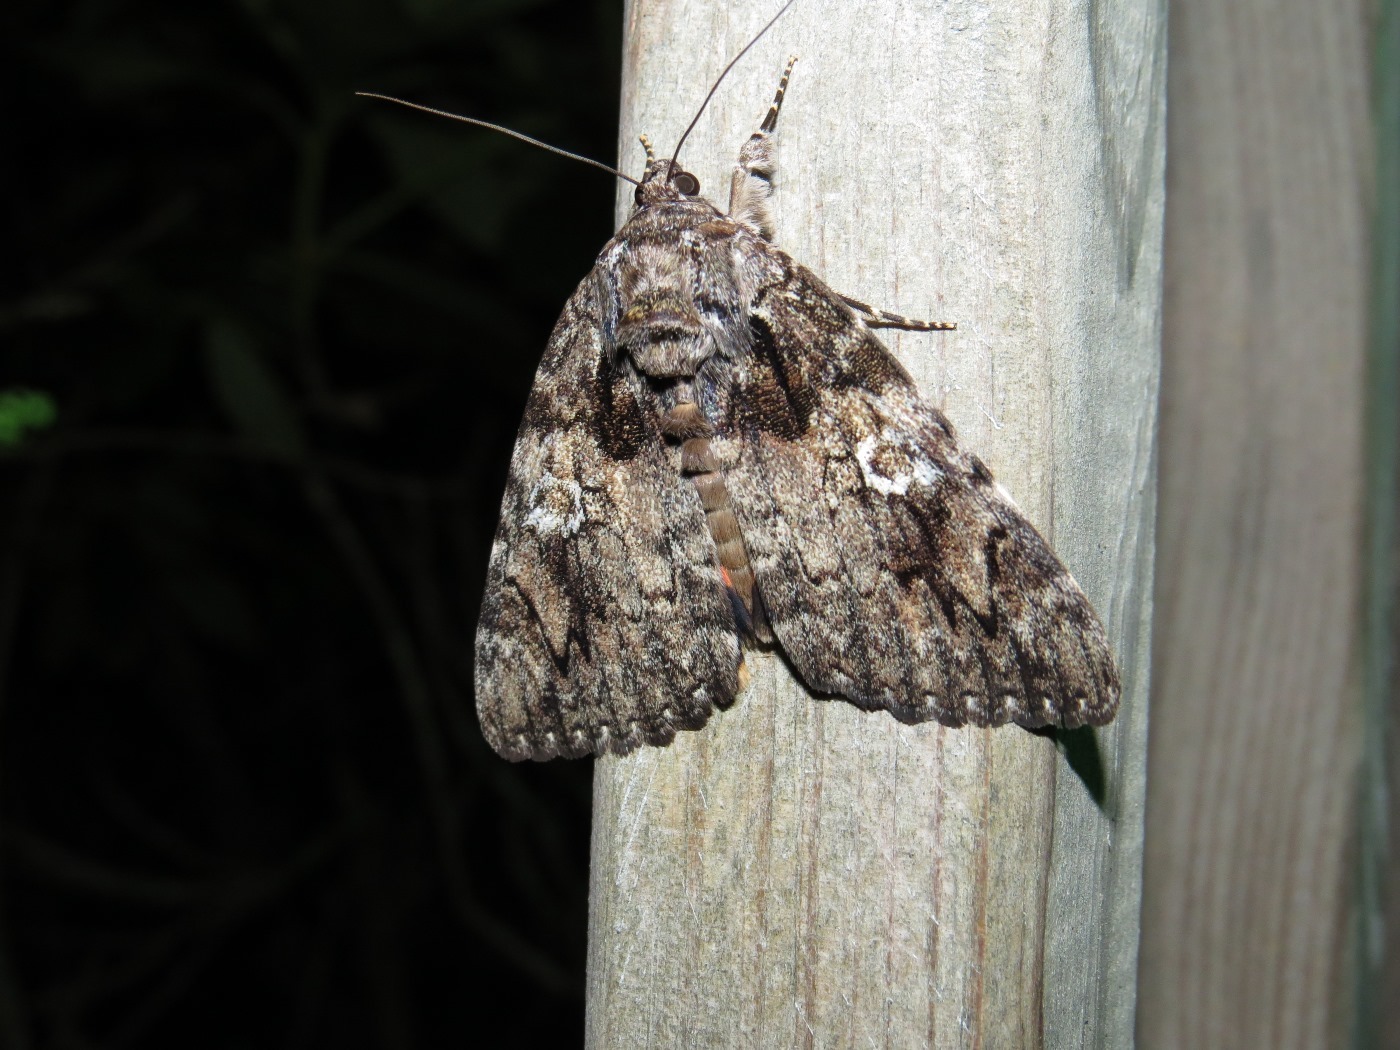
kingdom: Animalia
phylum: Arthropoda
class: Insecta
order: Lepidoptera
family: Erebidae
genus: Catocala
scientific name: Catocala ilia
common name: Ilia underwing
